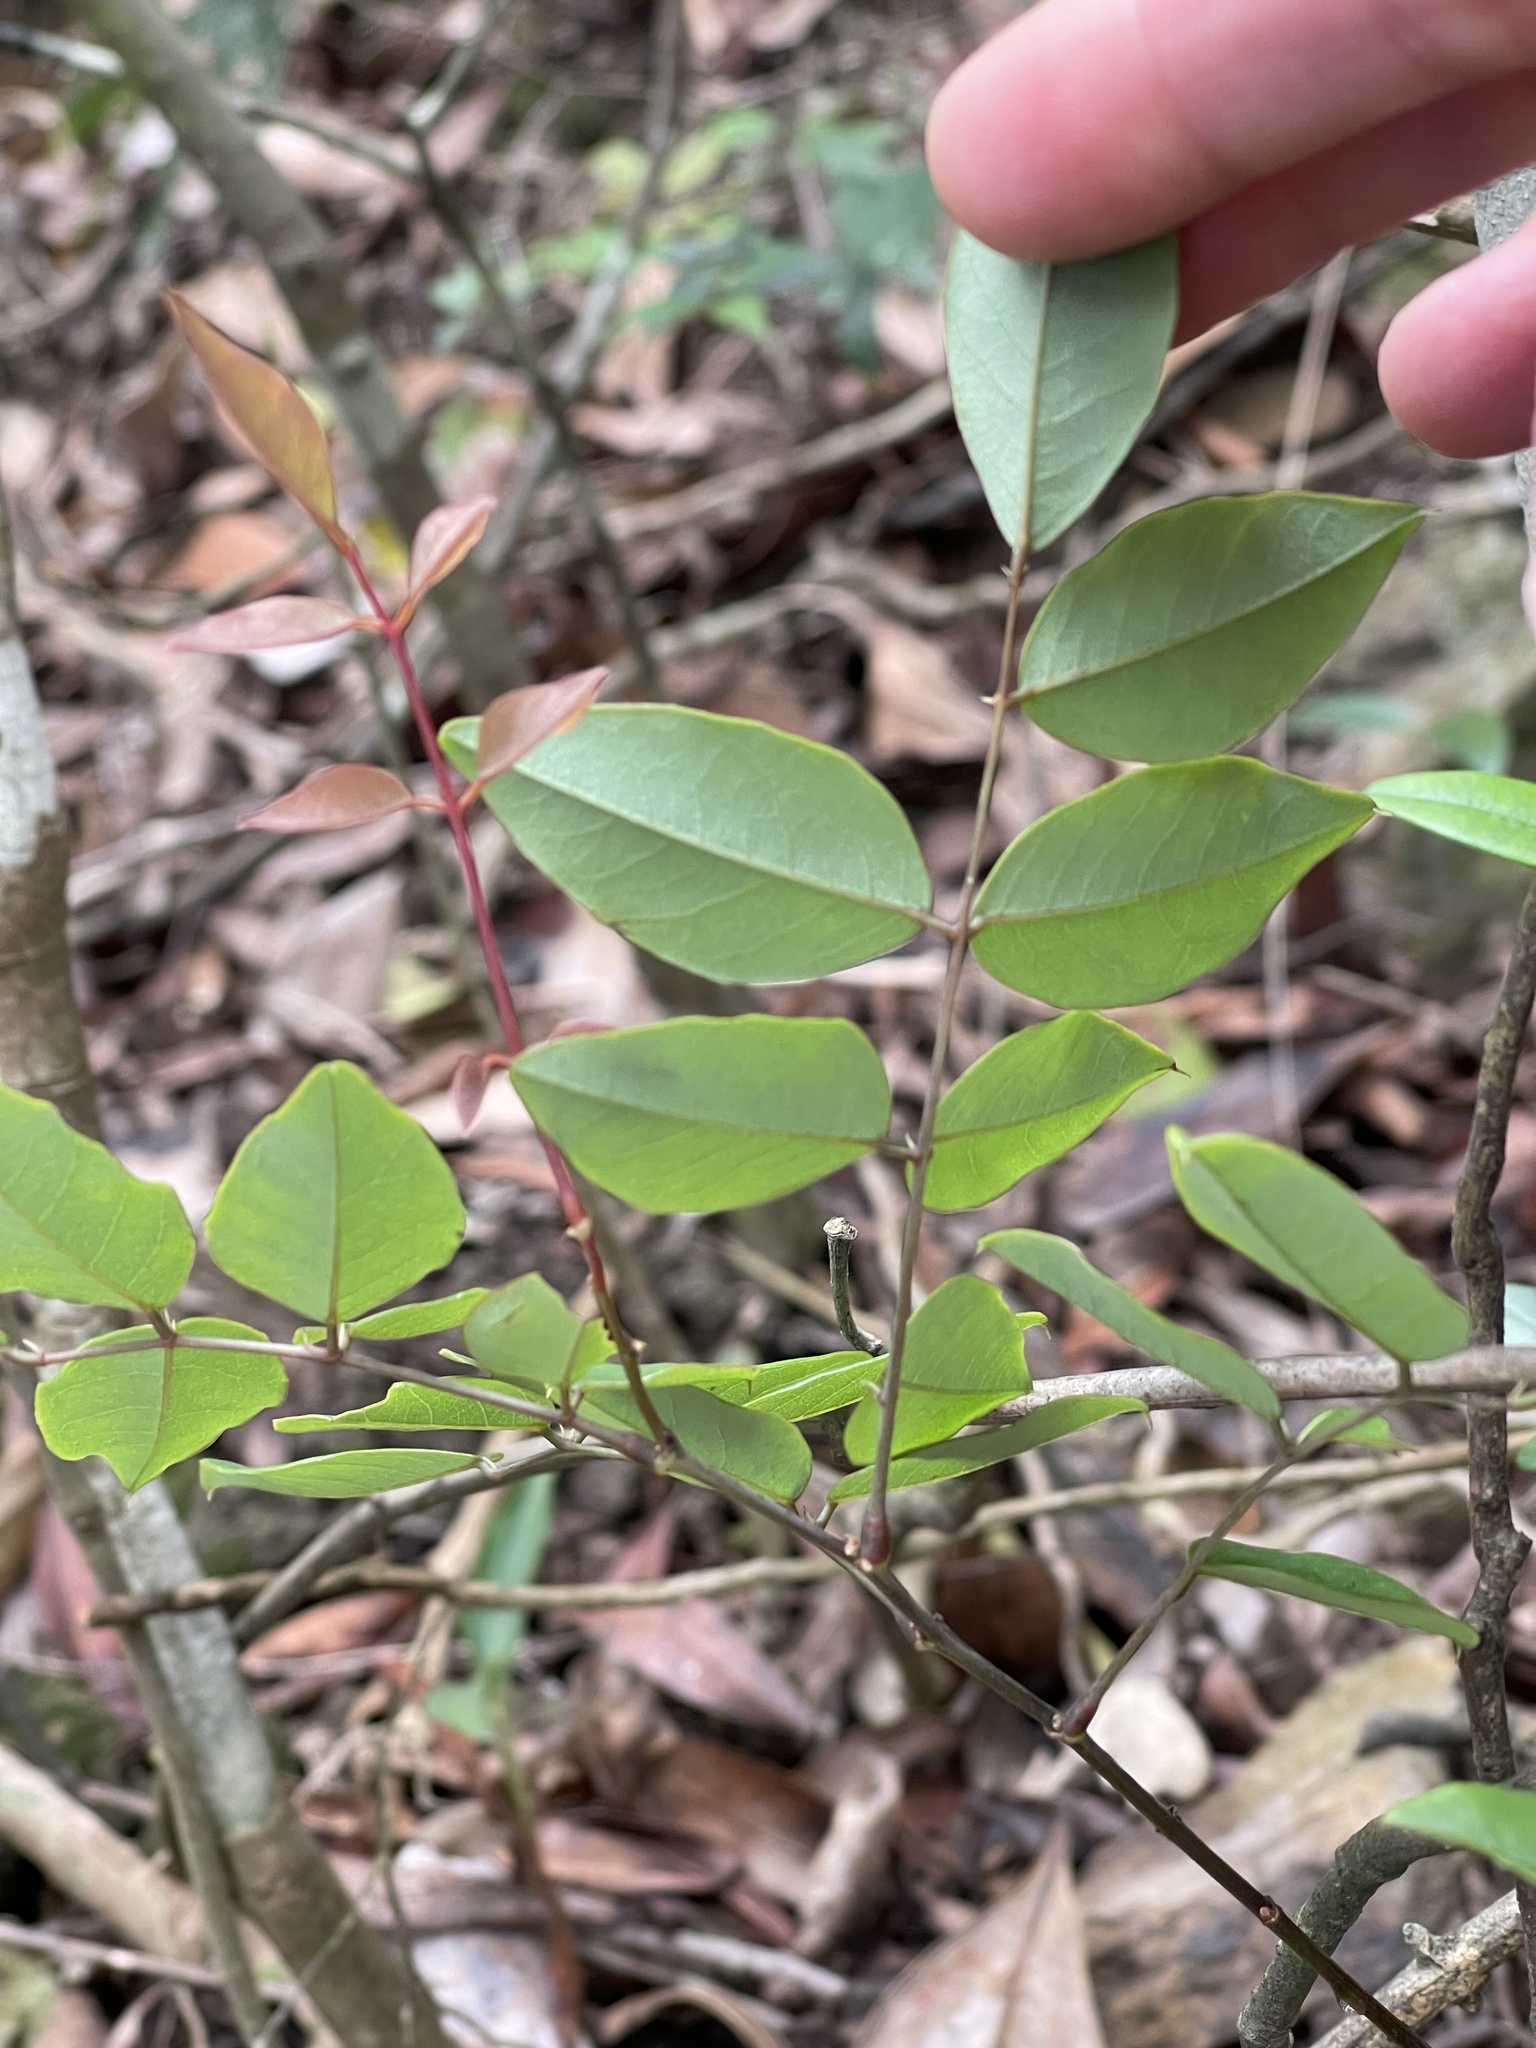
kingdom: Plantae
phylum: Tracheophyta
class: Magnoliopsida
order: Fabales
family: Fabaceae
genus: Indigofera
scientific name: Indigofera venulosa
